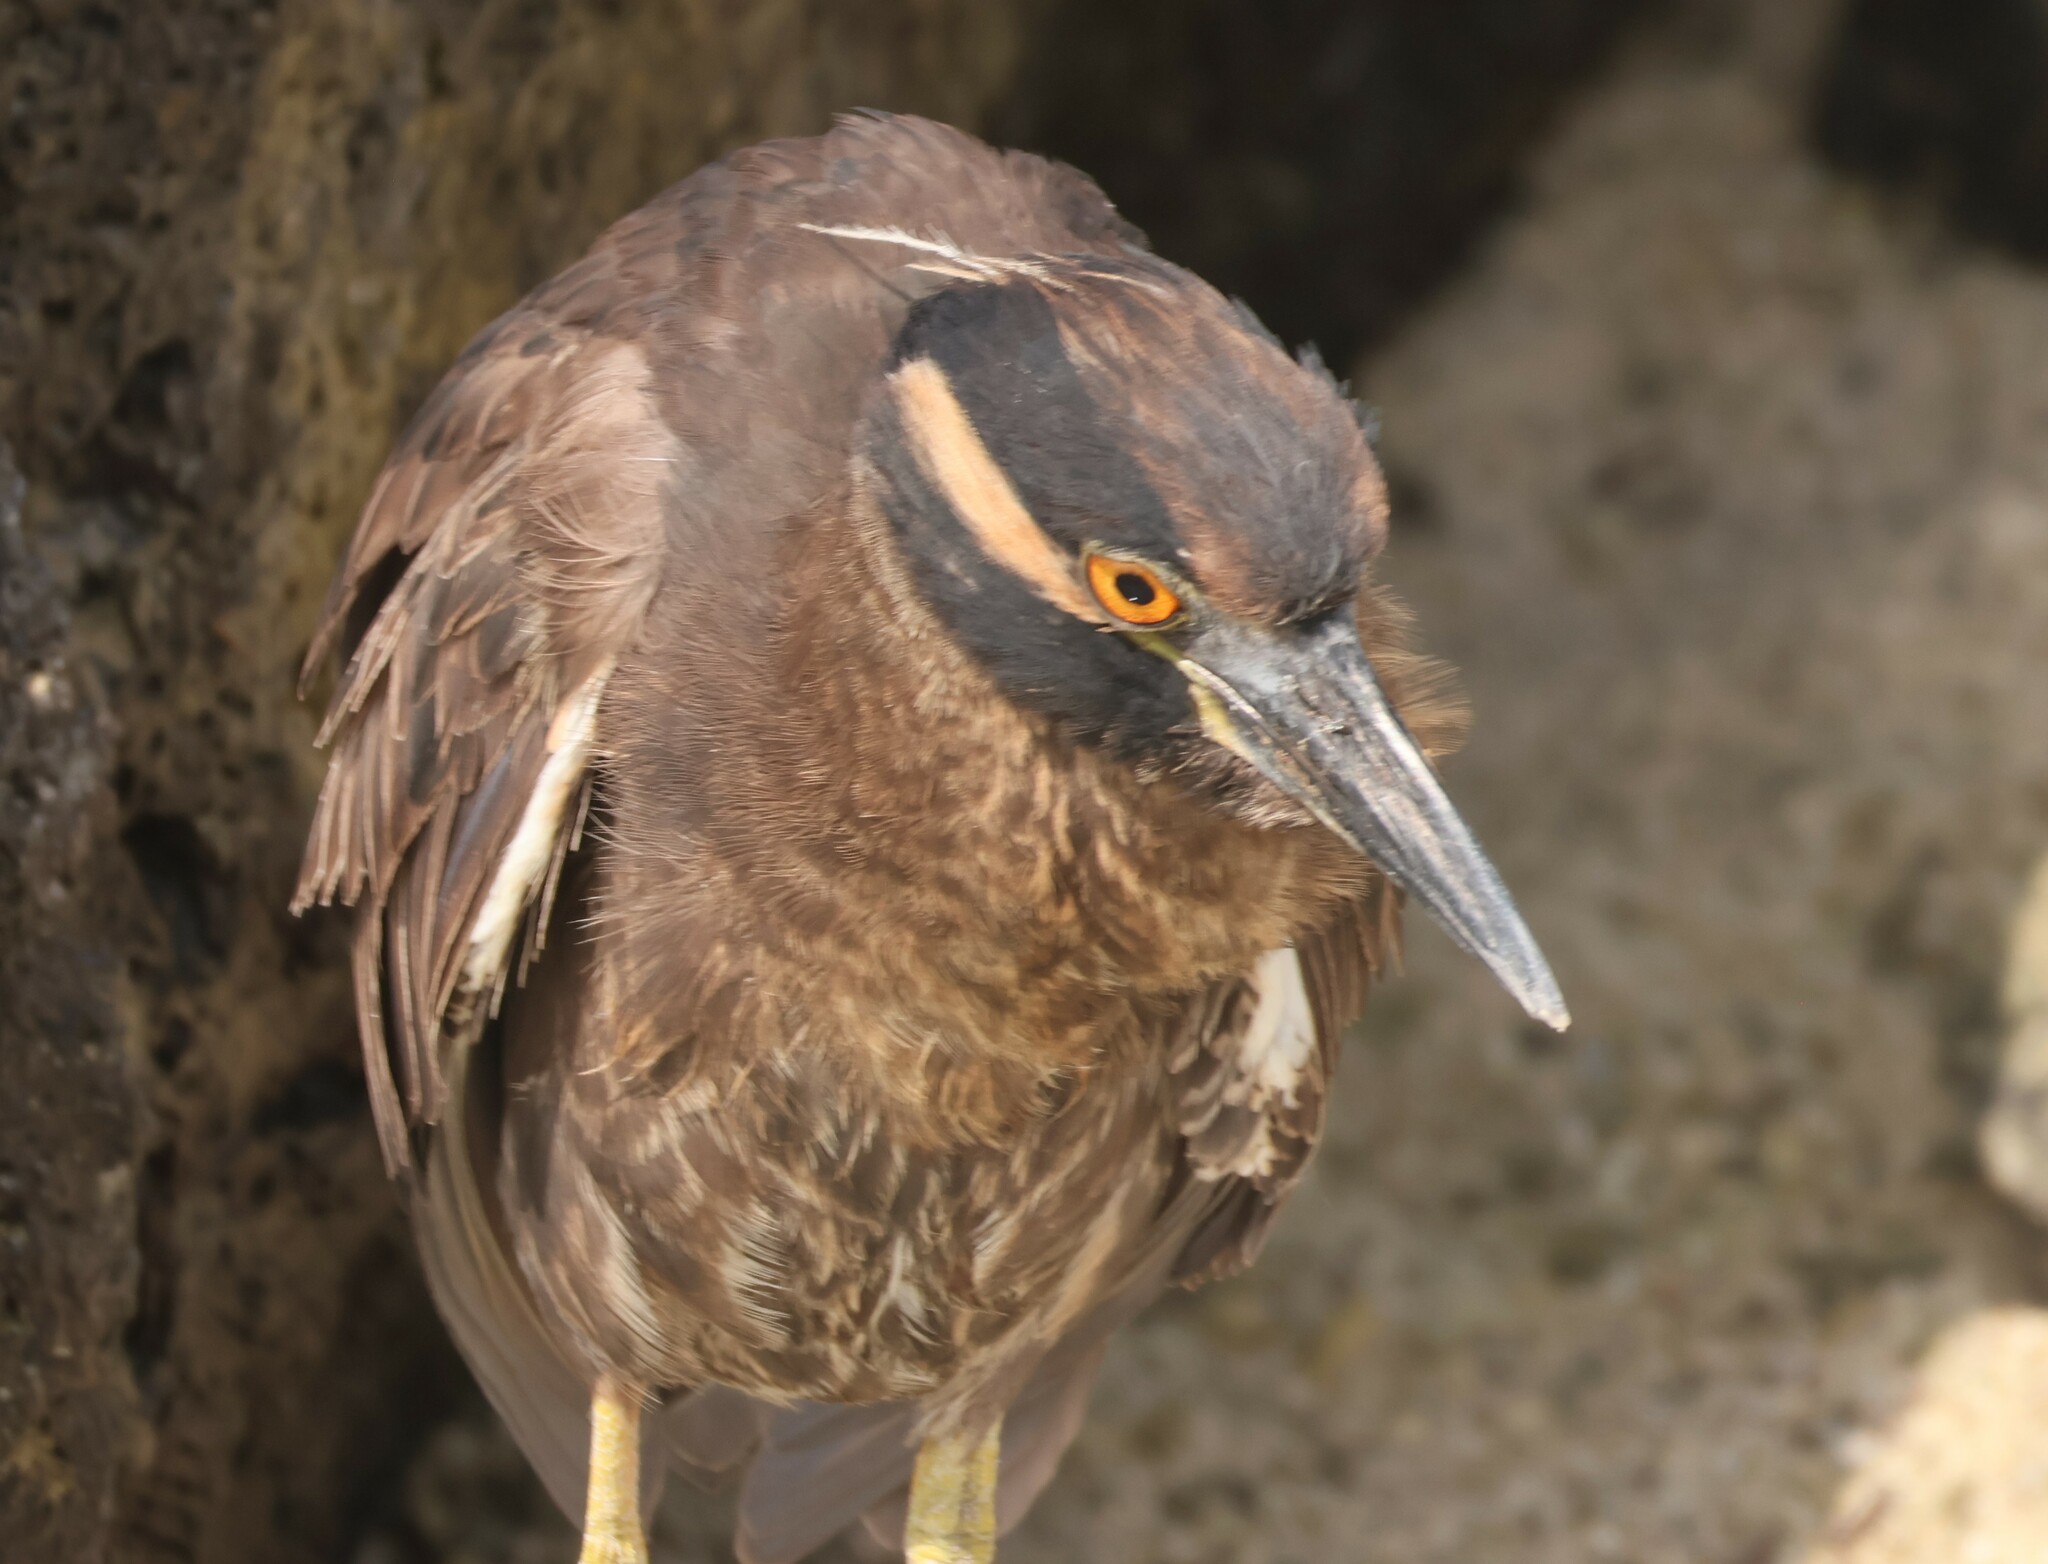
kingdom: Animalia
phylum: Chordata
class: Aves
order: Pelecaniformes
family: Ardeidae
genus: Nyctanassa
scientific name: Nyctanassa violacea
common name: Yellow-crowned night heron
